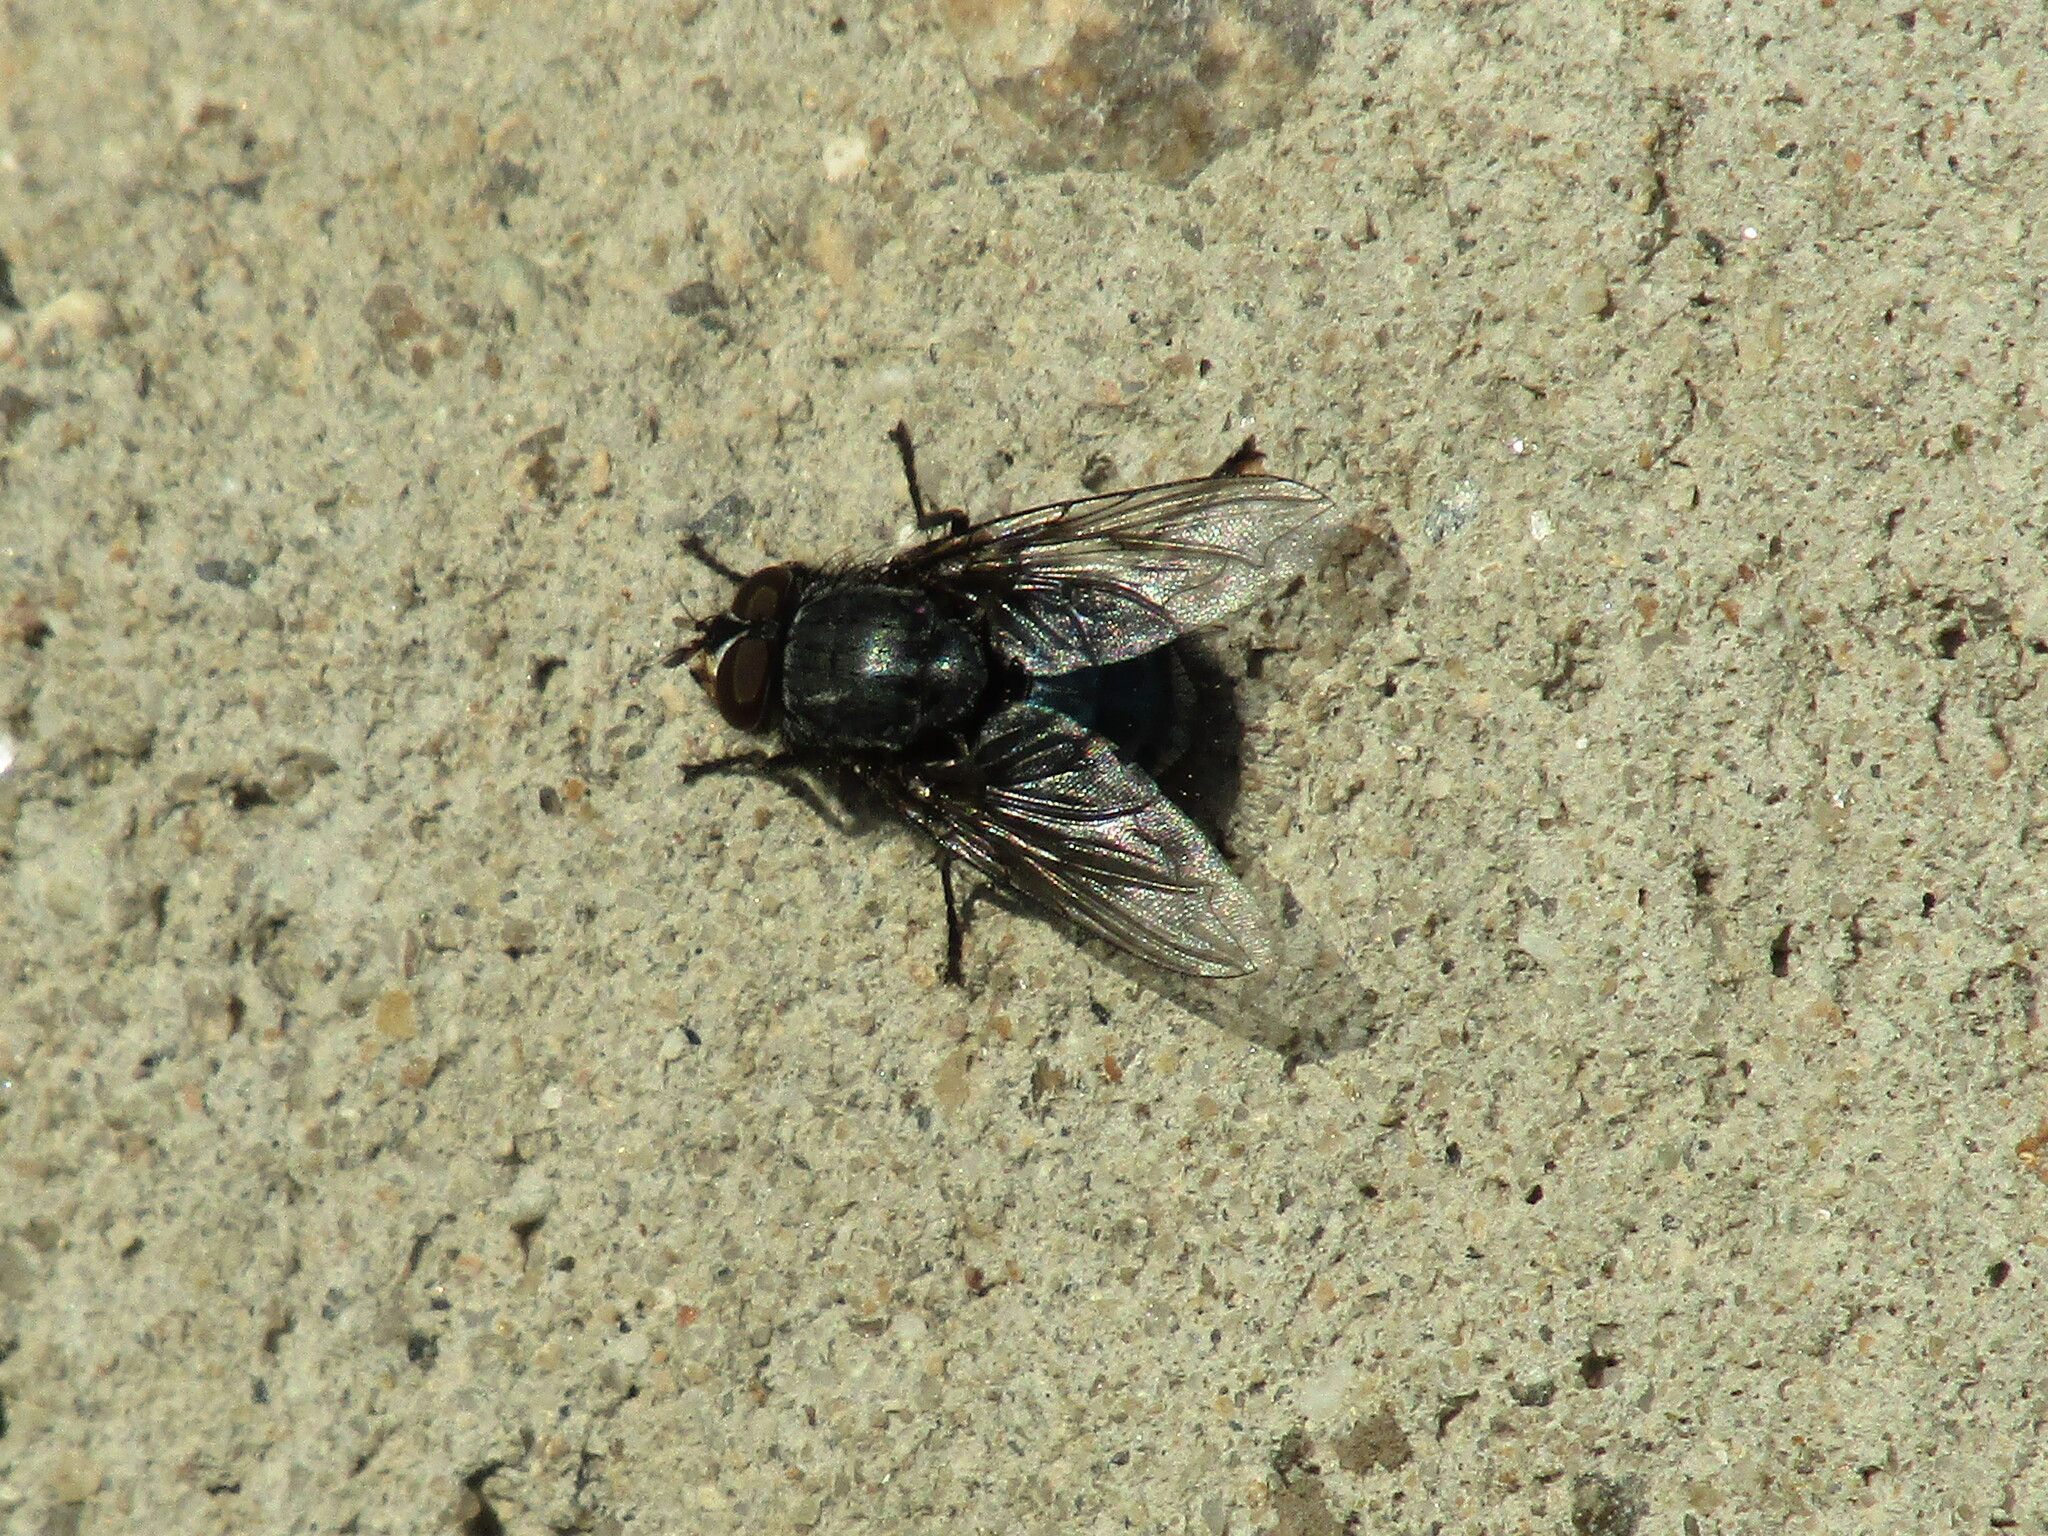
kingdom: Animalia
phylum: Arthropoda
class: Insecta
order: Diptera
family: Calliphoridae
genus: Calliphora
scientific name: Calliphora vicina
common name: Common blow flie
